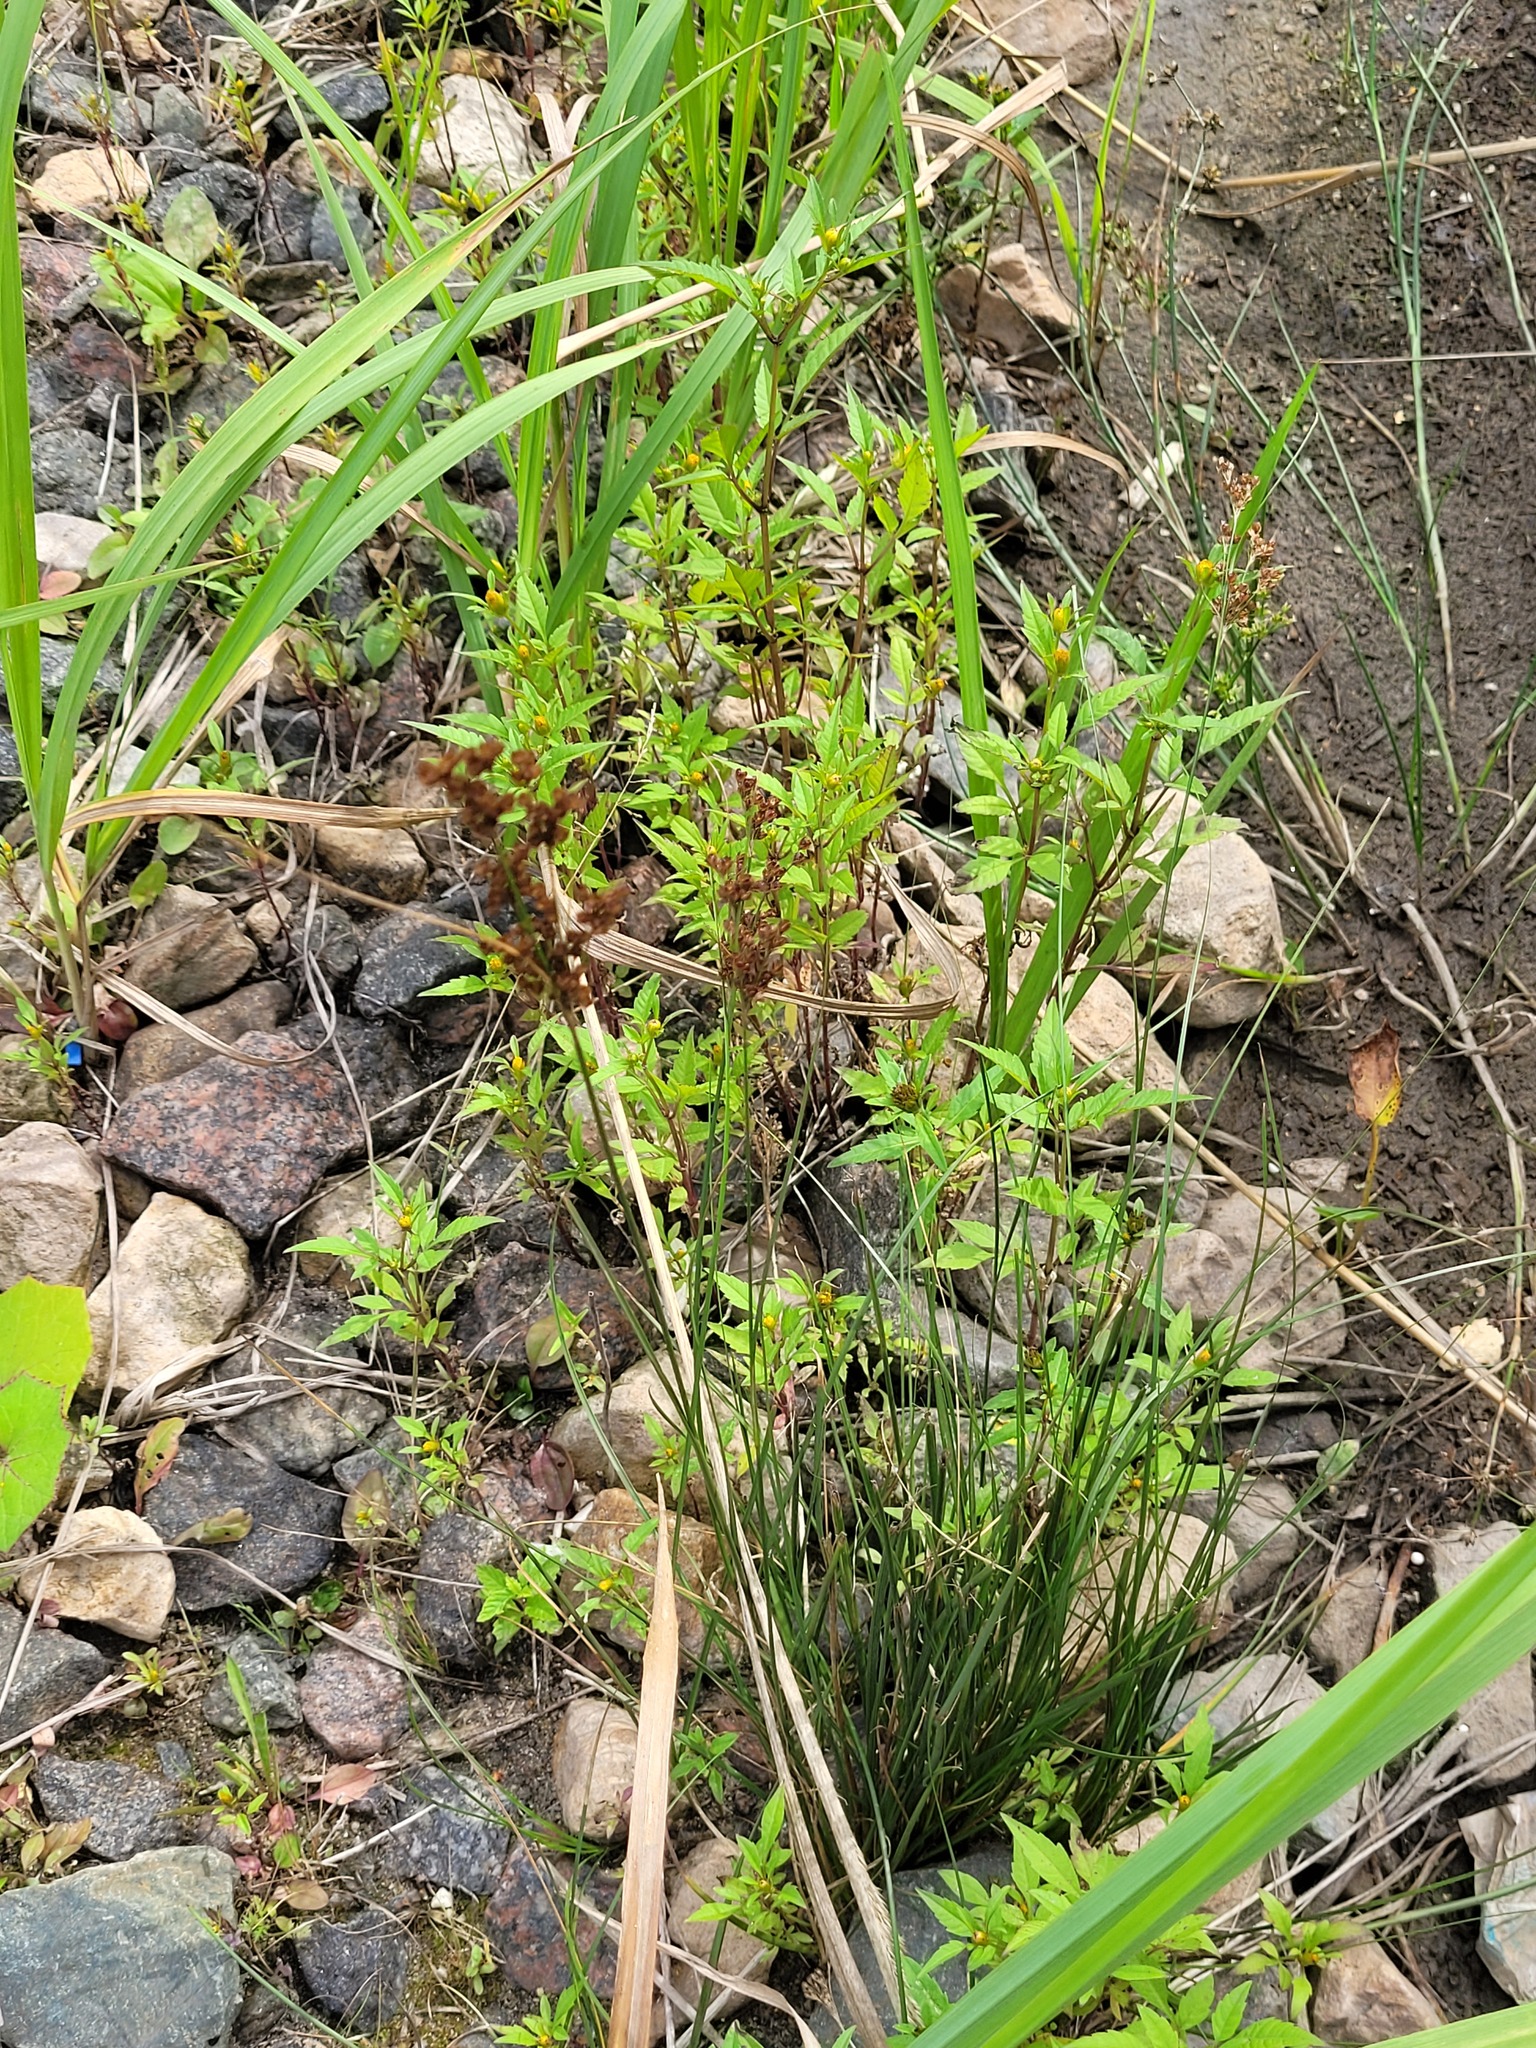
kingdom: Plantae
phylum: Tracheophyta
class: Liliopsida
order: Poales
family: Juncaceae
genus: Juncus
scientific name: Juncus compressus
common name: Round-fruited rush
